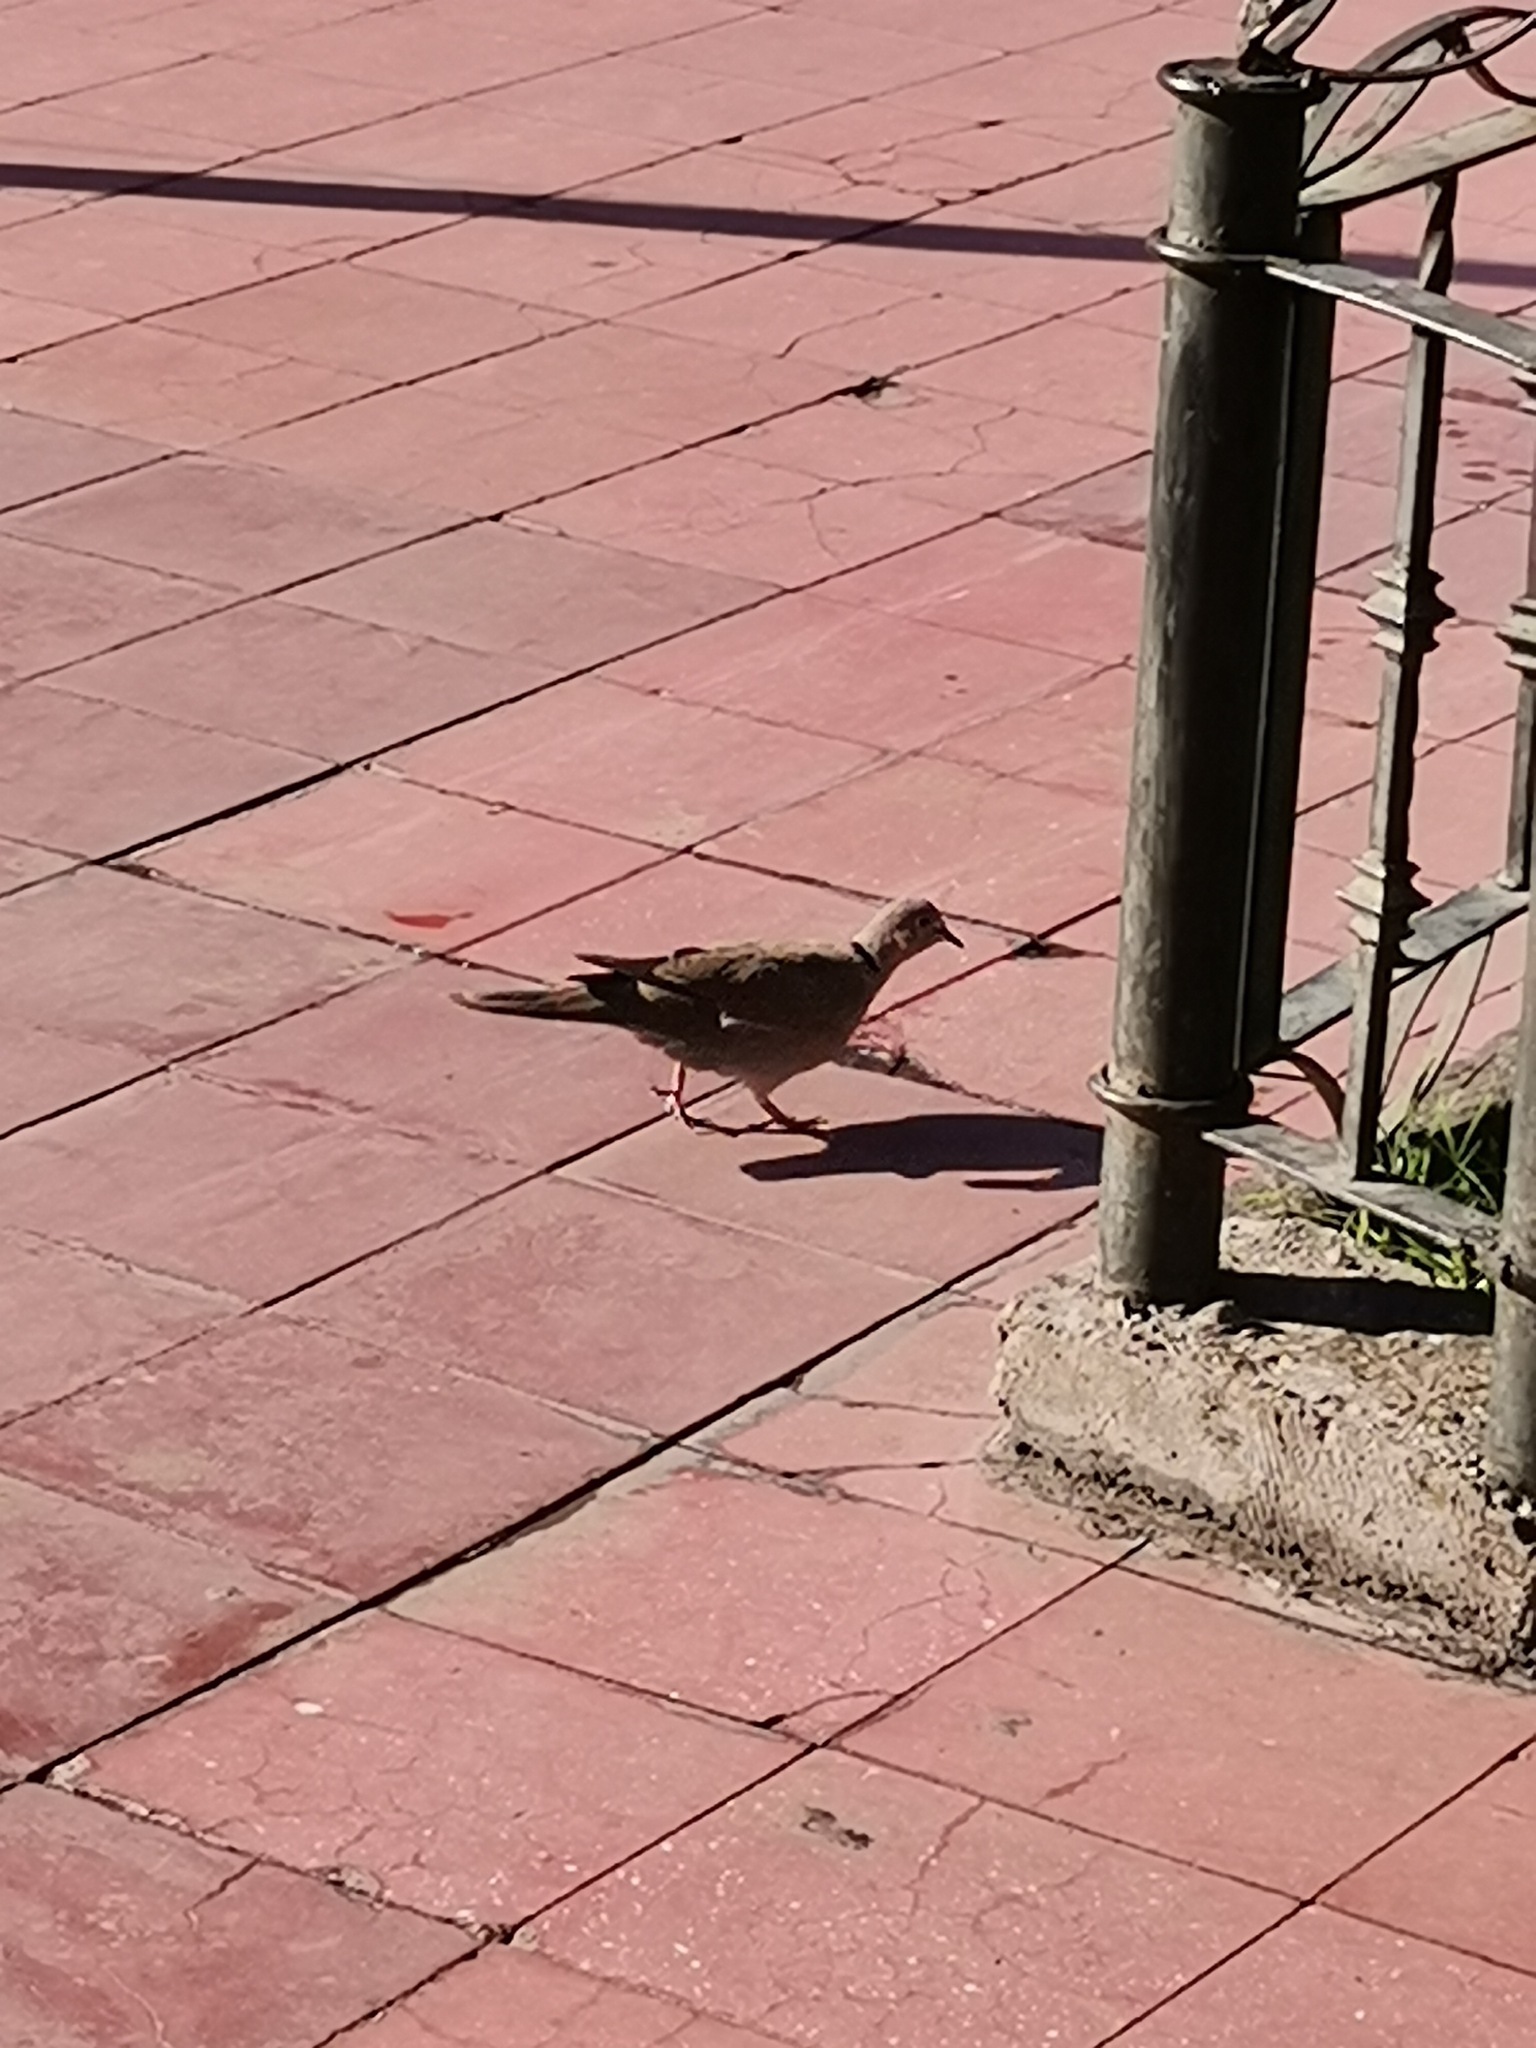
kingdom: Animalia
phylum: Chordata
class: Aves
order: Columbiformes
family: Columbidae
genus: Streptopelia
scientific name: Streptopelia decaocto
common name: Eurasian collared dove
